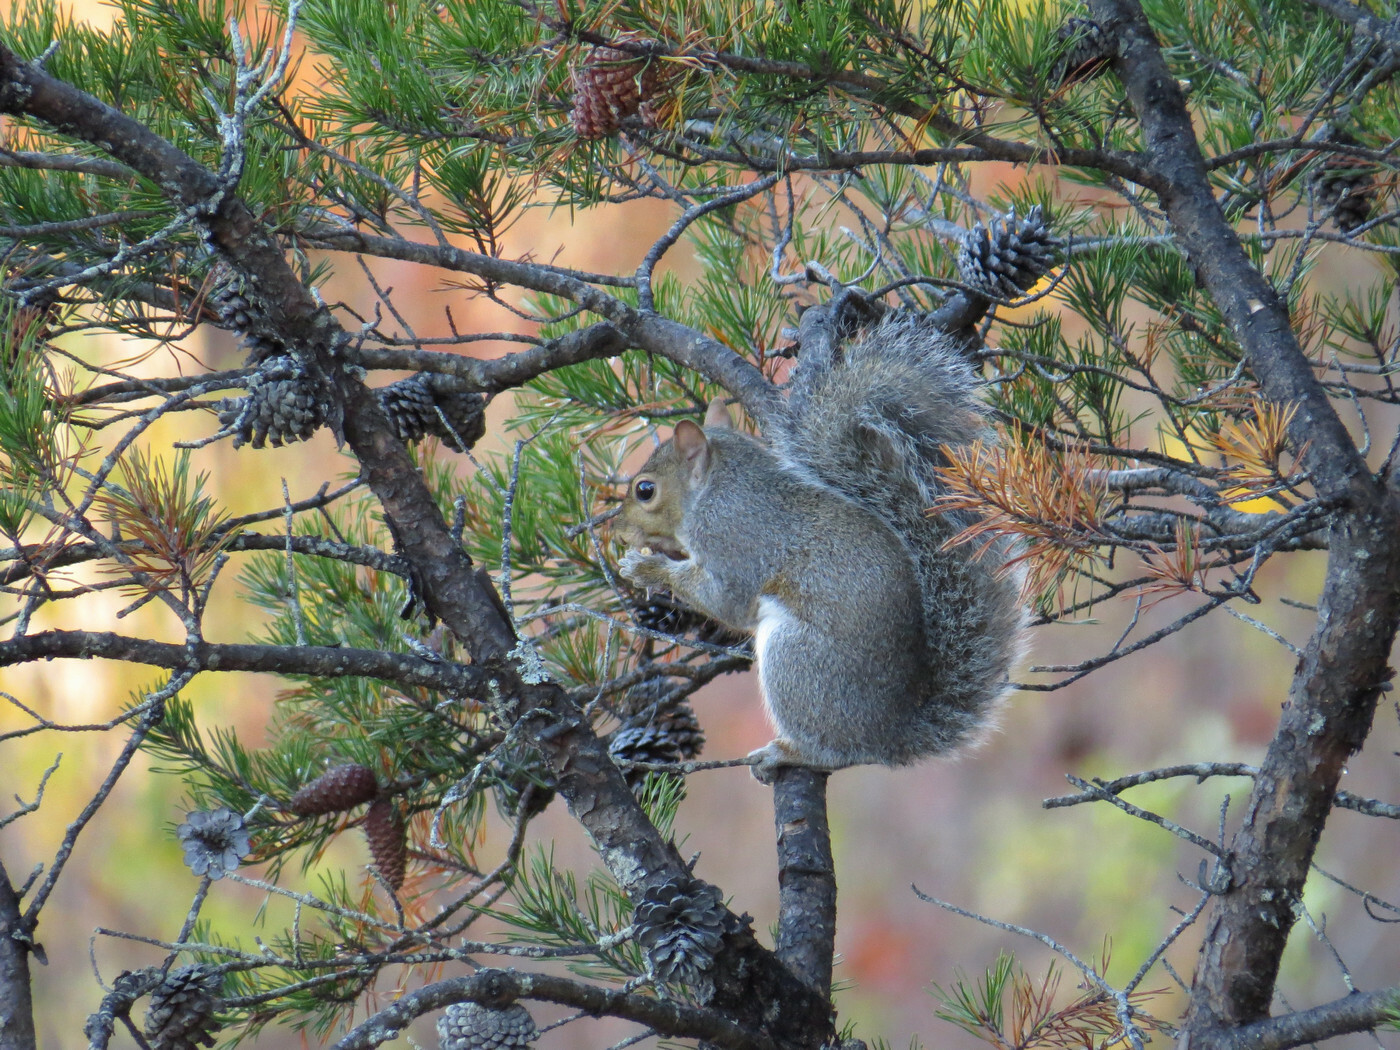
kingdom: Animalia
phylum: Chordata
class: Mammalia
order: Rodentia
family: Sciuridae
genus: Sciurus
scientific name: Sciurus carolinensis
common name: Eastern gray squirrel
